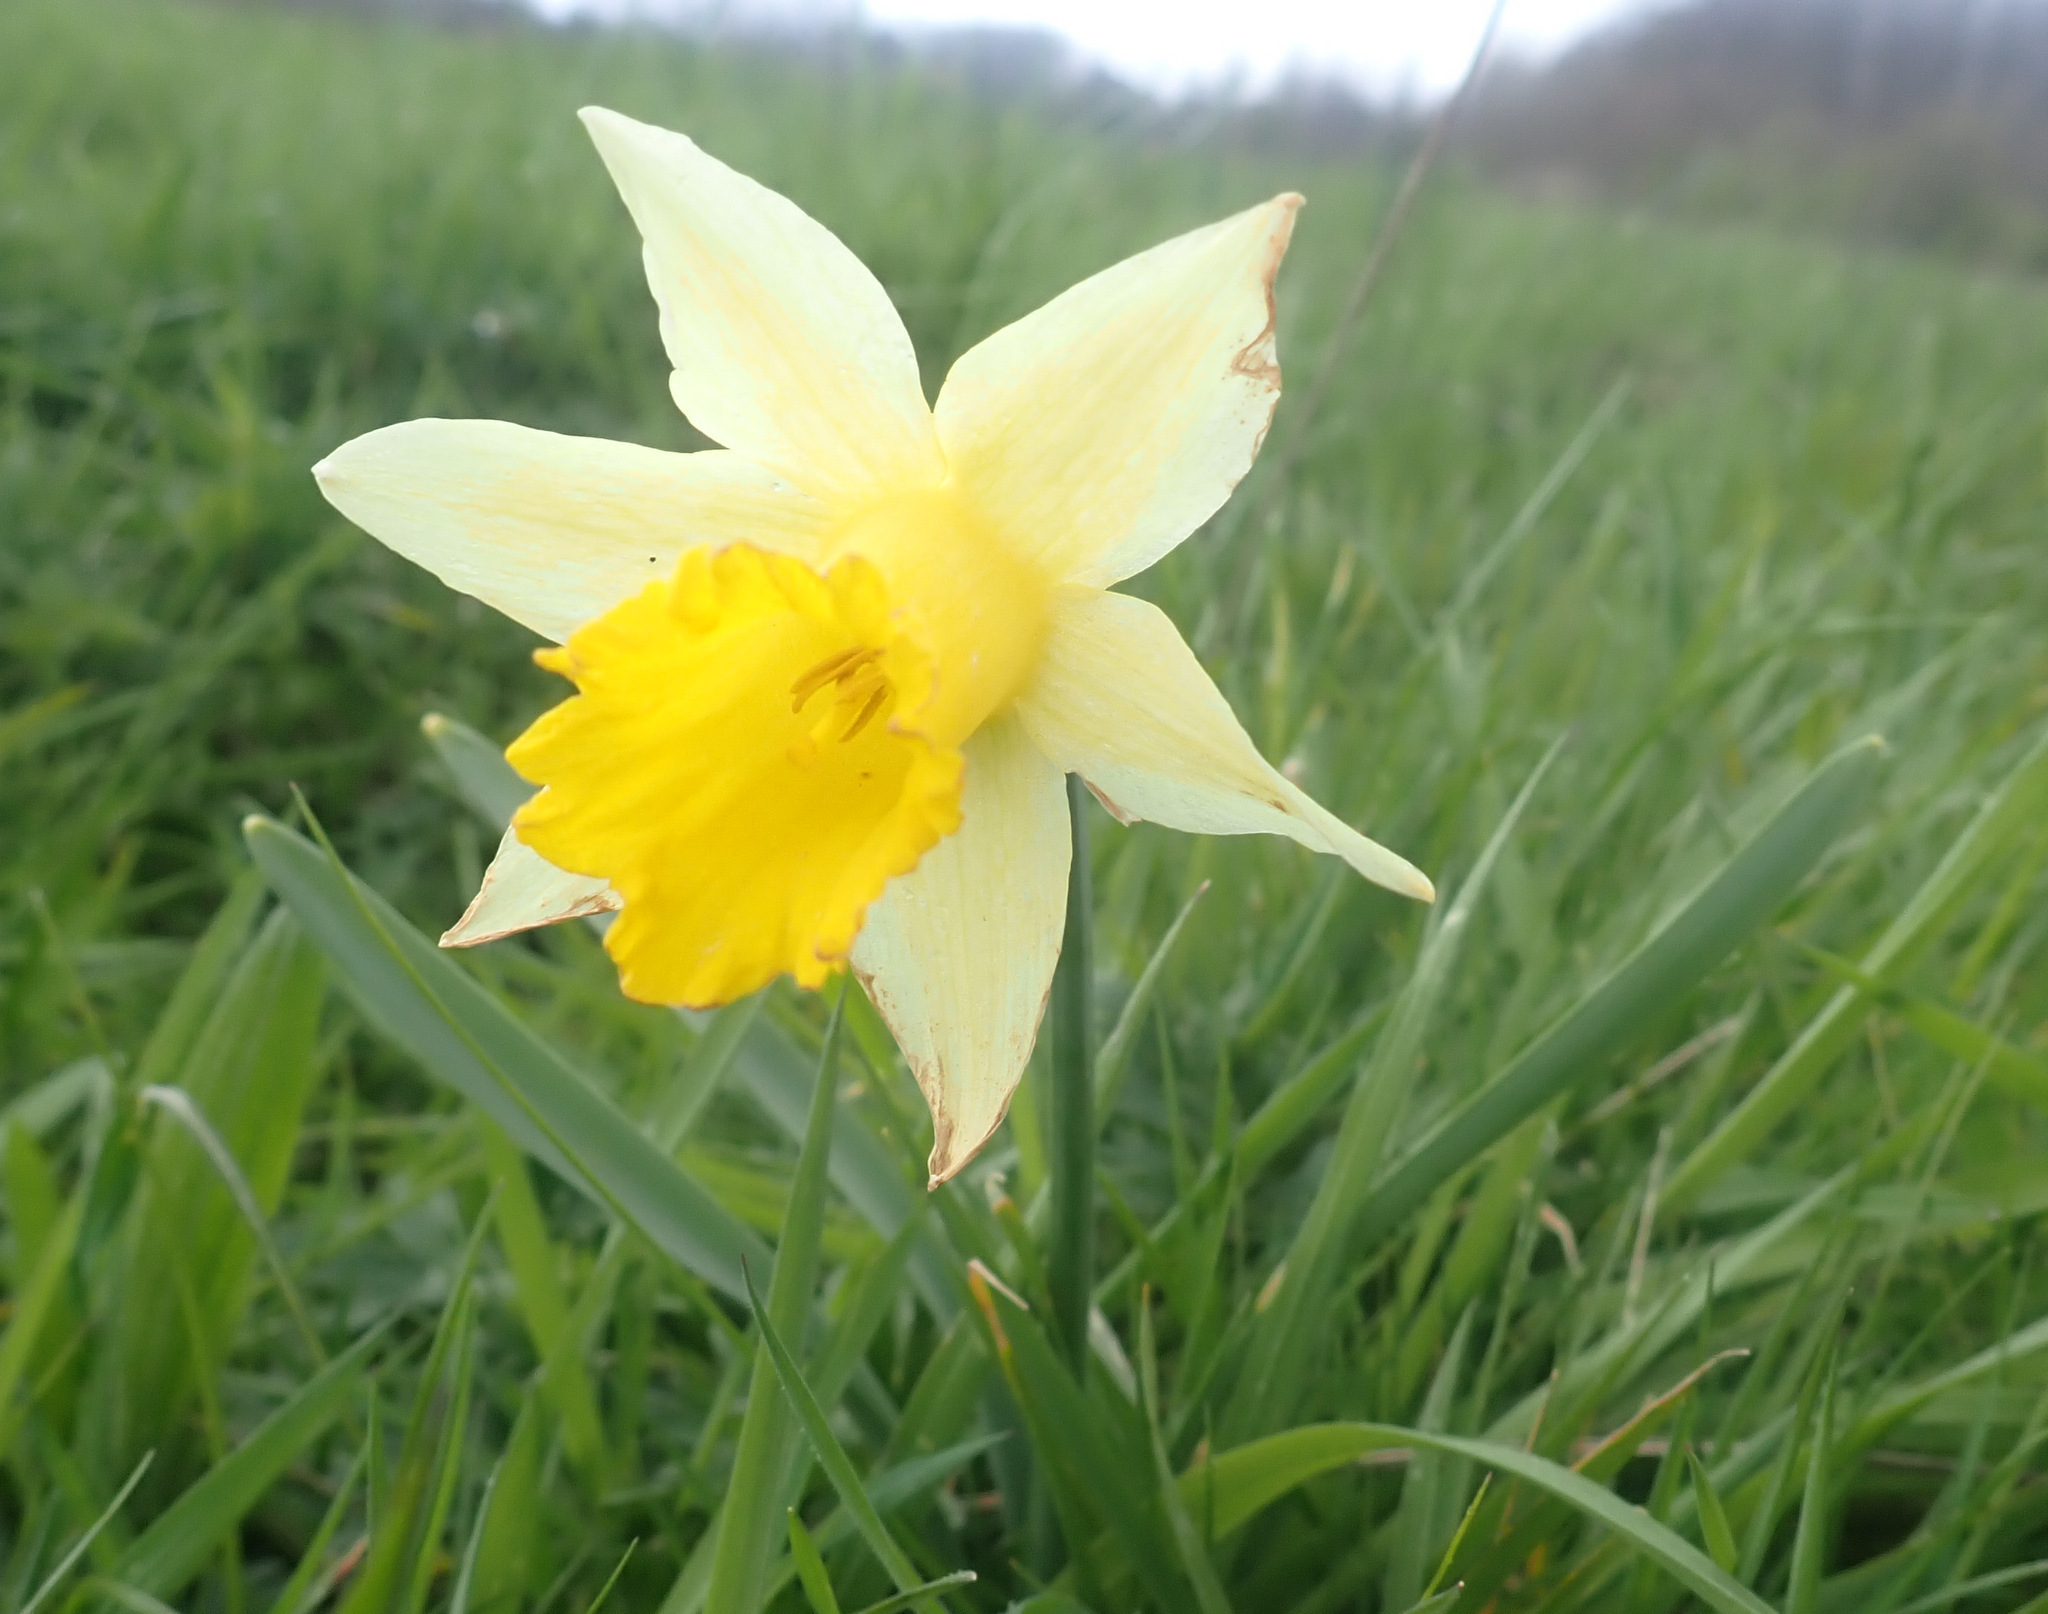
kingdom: Plantae
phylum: Tracheophyta
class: Liliopsida
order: Asparagales
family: Amaryllidaceae
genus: Narcissus
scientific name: Narcissus pseudonarcissus
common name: Daffodil
